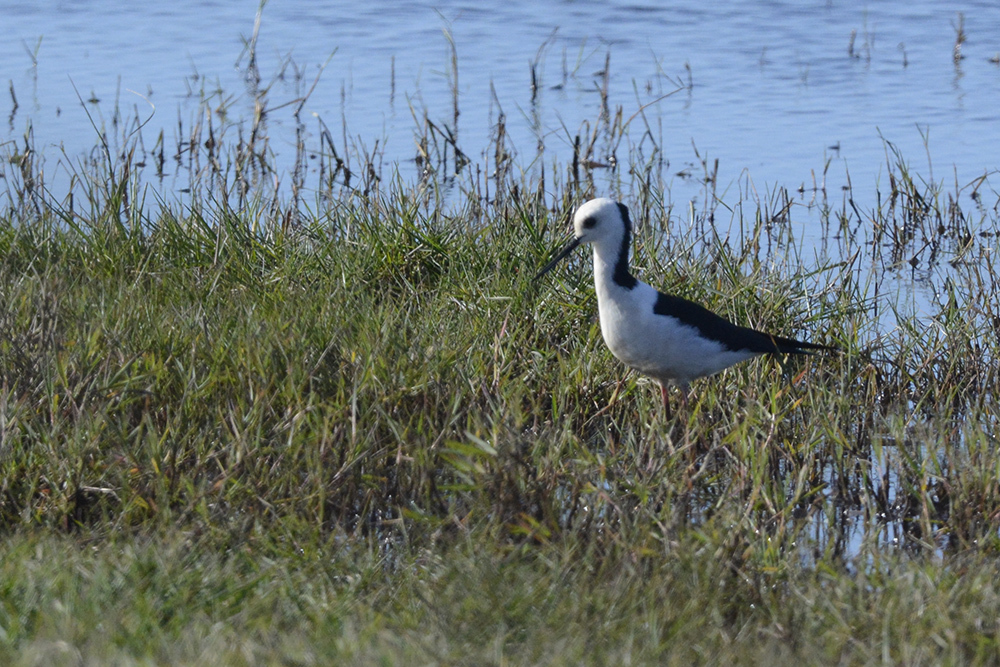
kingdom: Animalia
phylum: Chordata
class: Aves
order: Charadriiformes
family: Recurvirostridae
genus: Himantopus
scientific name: Himantopus leucocephalus
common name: White-headed stilt
